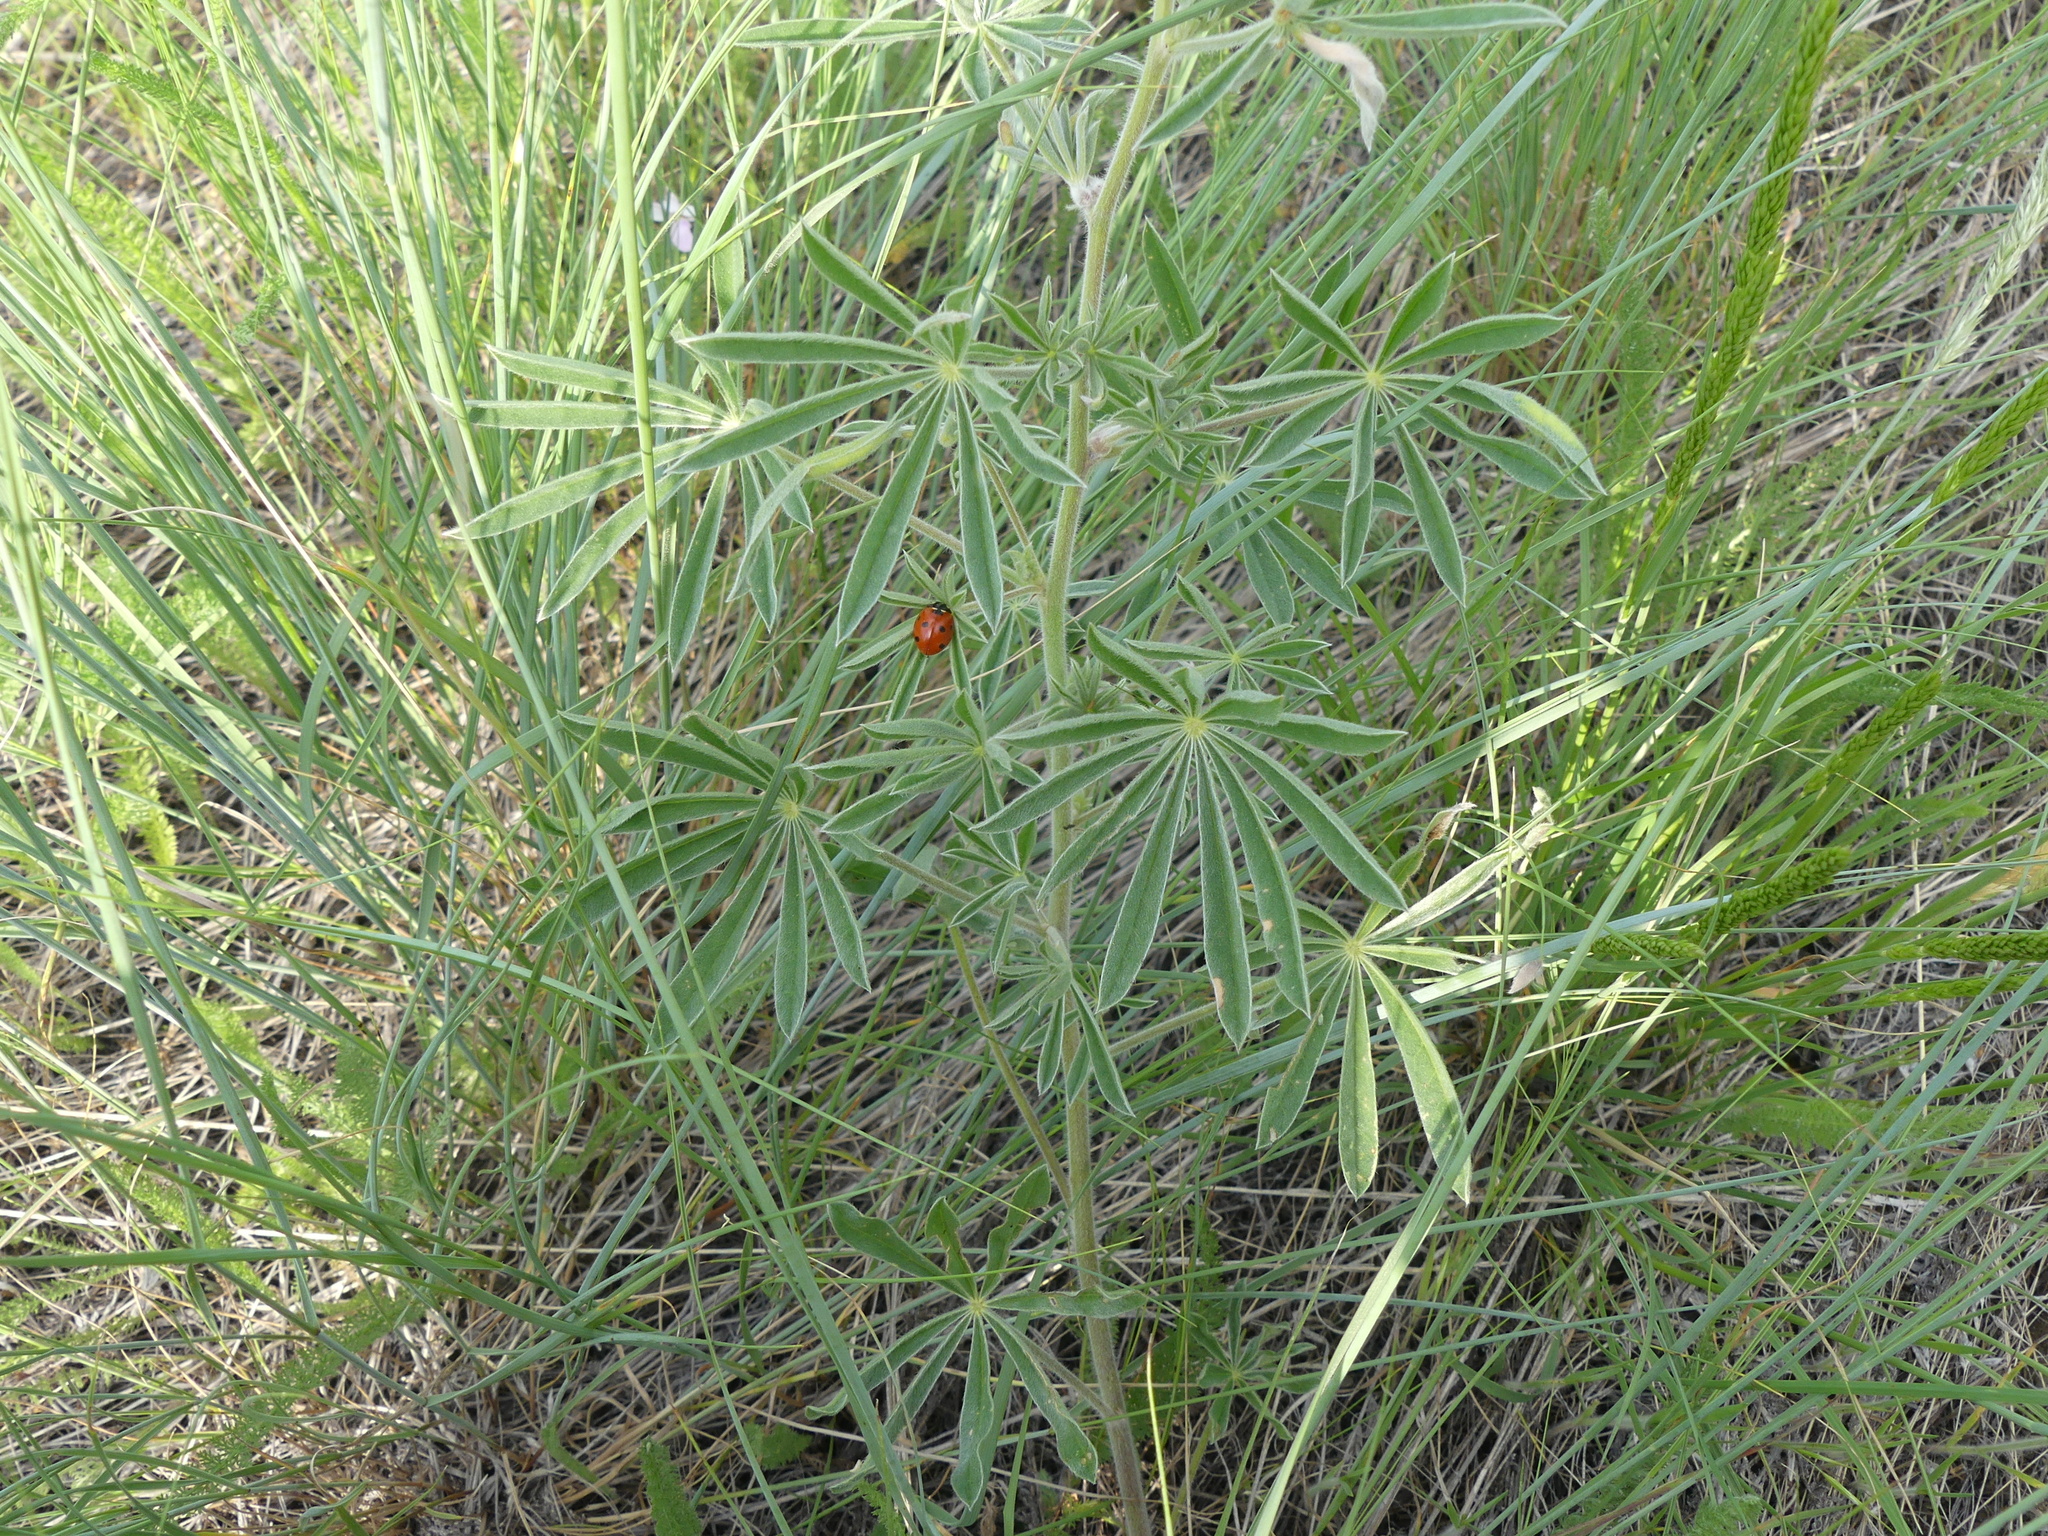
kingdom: Animalia
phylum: Arthropoda
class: Insecta
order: Coleoptera
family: Coccinellidae
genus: Coccinella
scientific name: Coccinella septempunctata
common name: Sevenspotted lady beetle
